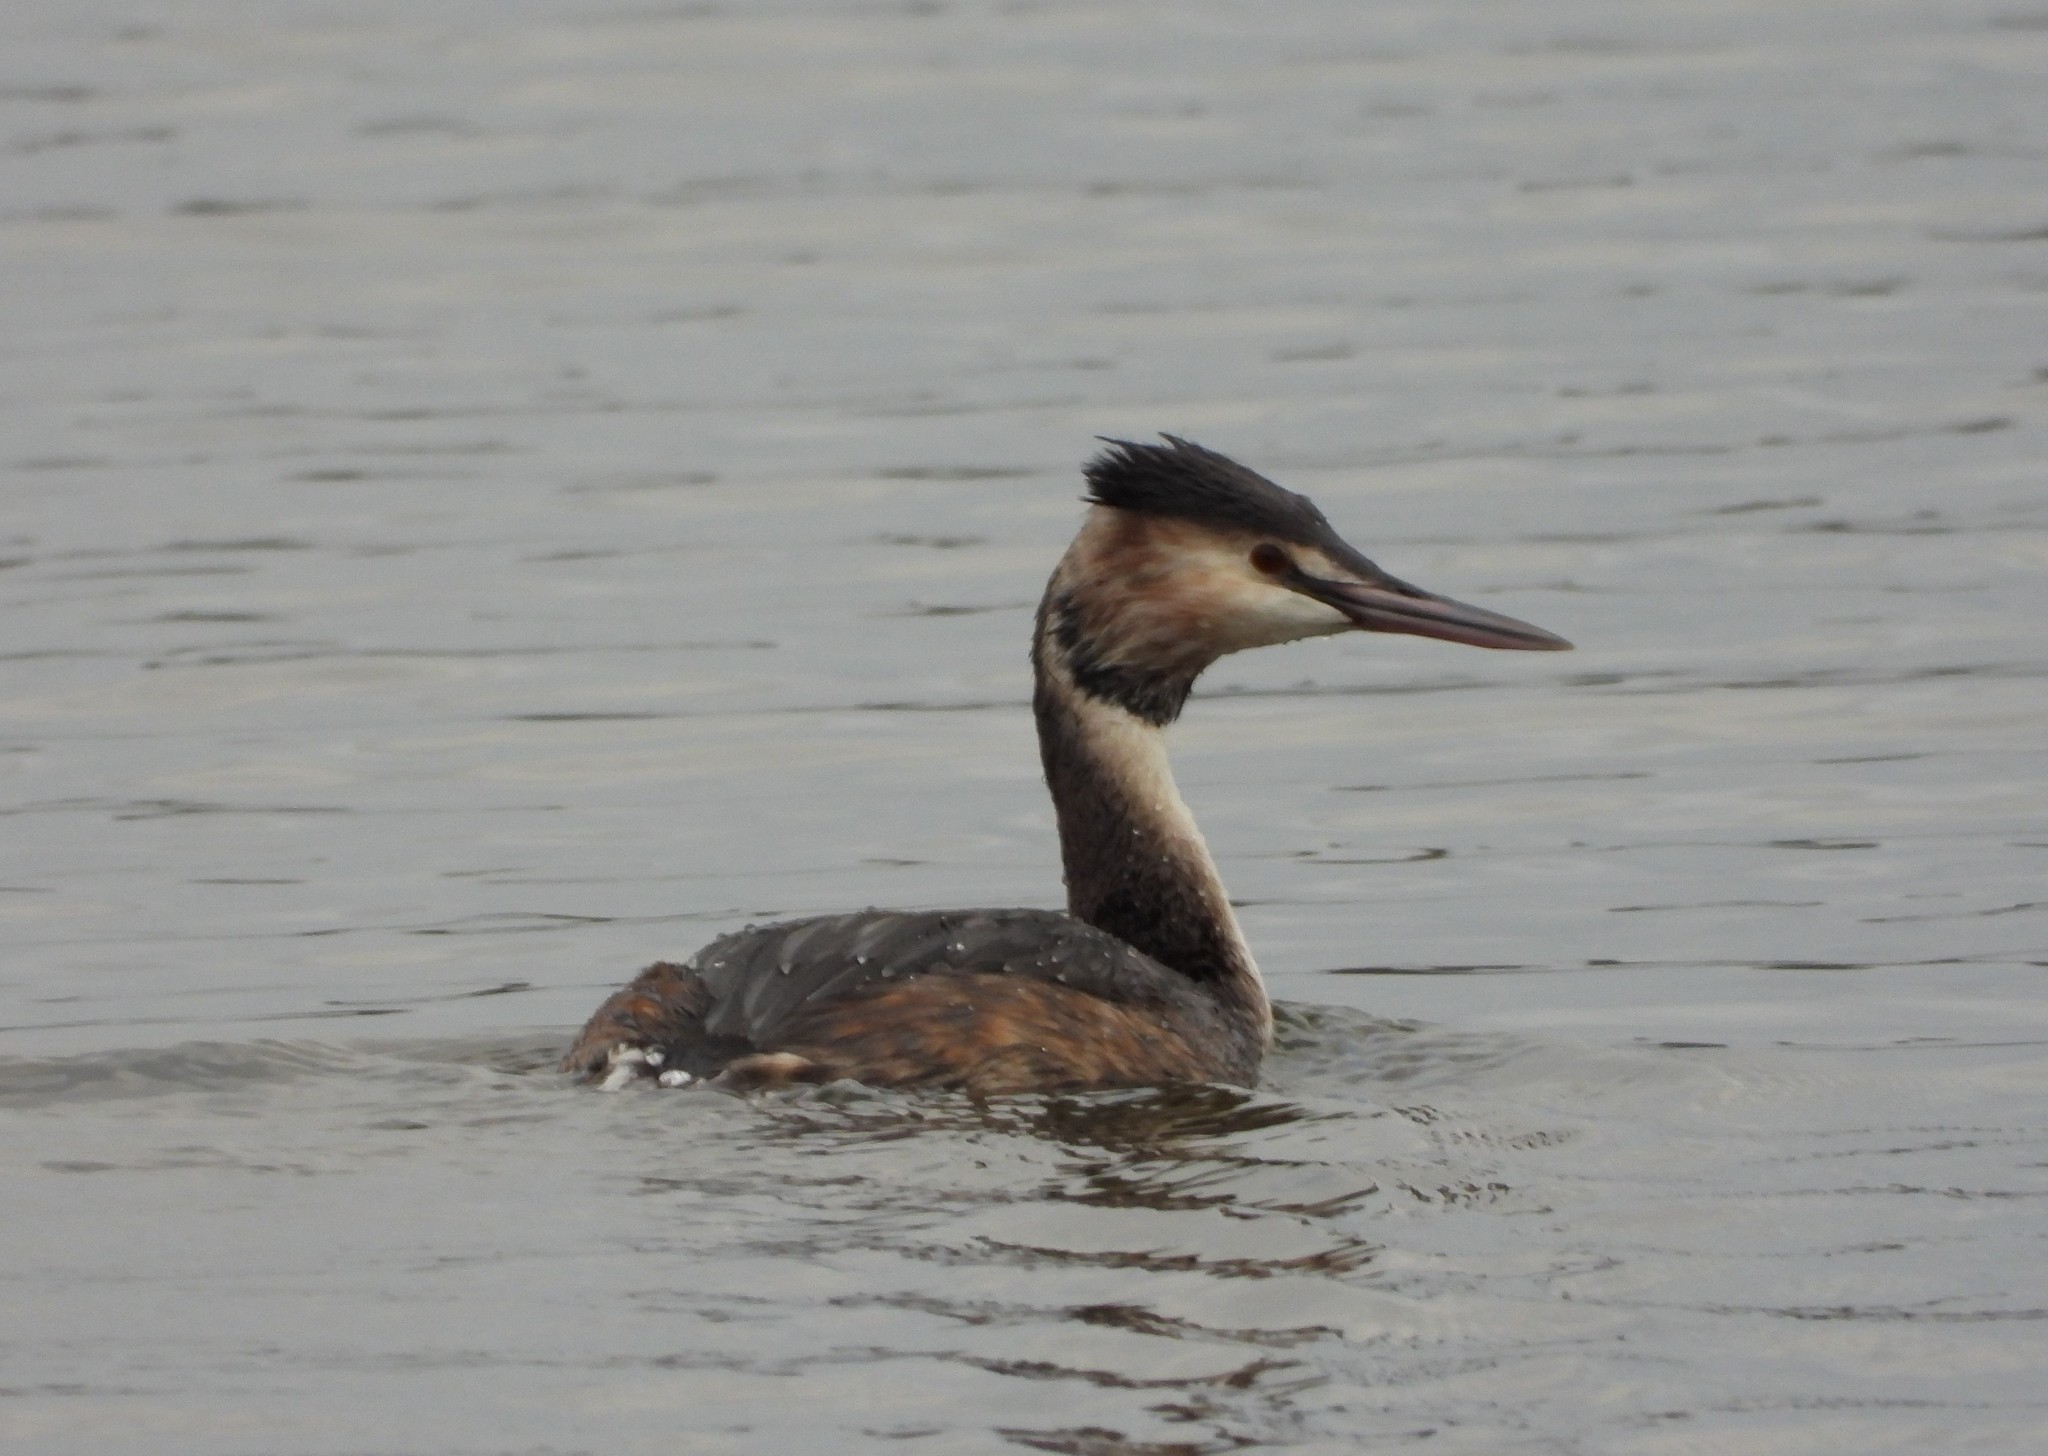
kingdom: Animalia
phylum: Chordata
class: Aves
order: Podicipediformes
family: Podicipedidae
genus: Podiceps
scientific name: Podiceps cristatus
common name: Great crested grebe
